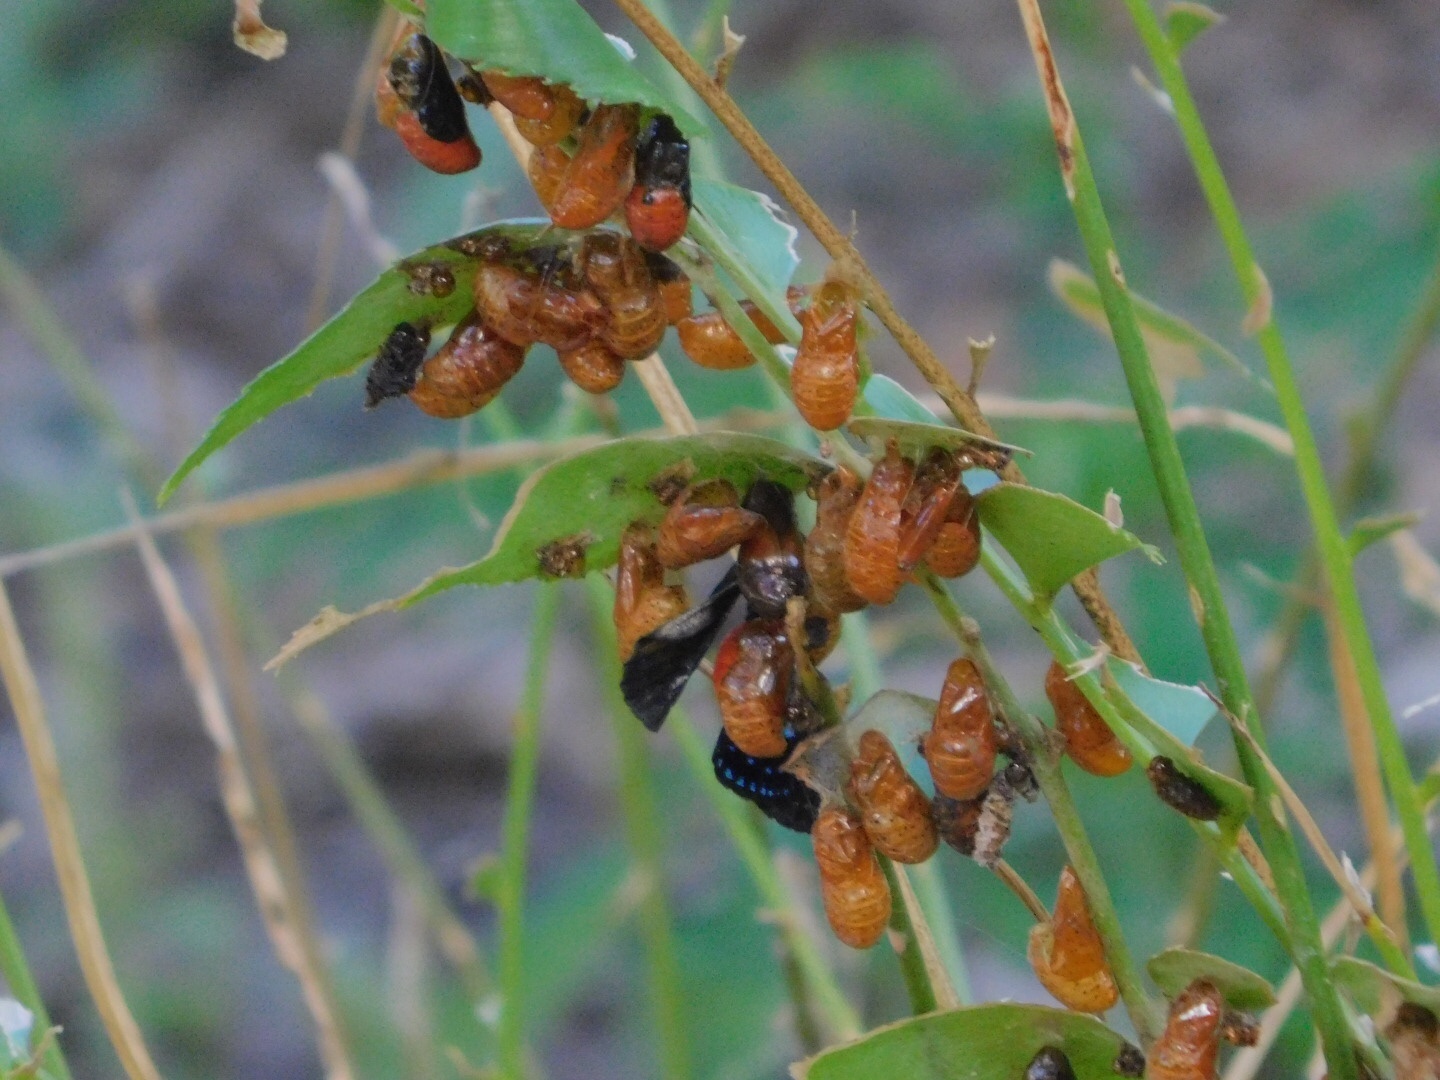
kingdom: Animalia
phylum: Arthropoda
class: Insecta
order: Lepidoptera
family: Lycaenidae
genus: Eumaeus
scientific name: Eumaeus atala
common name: Atala
